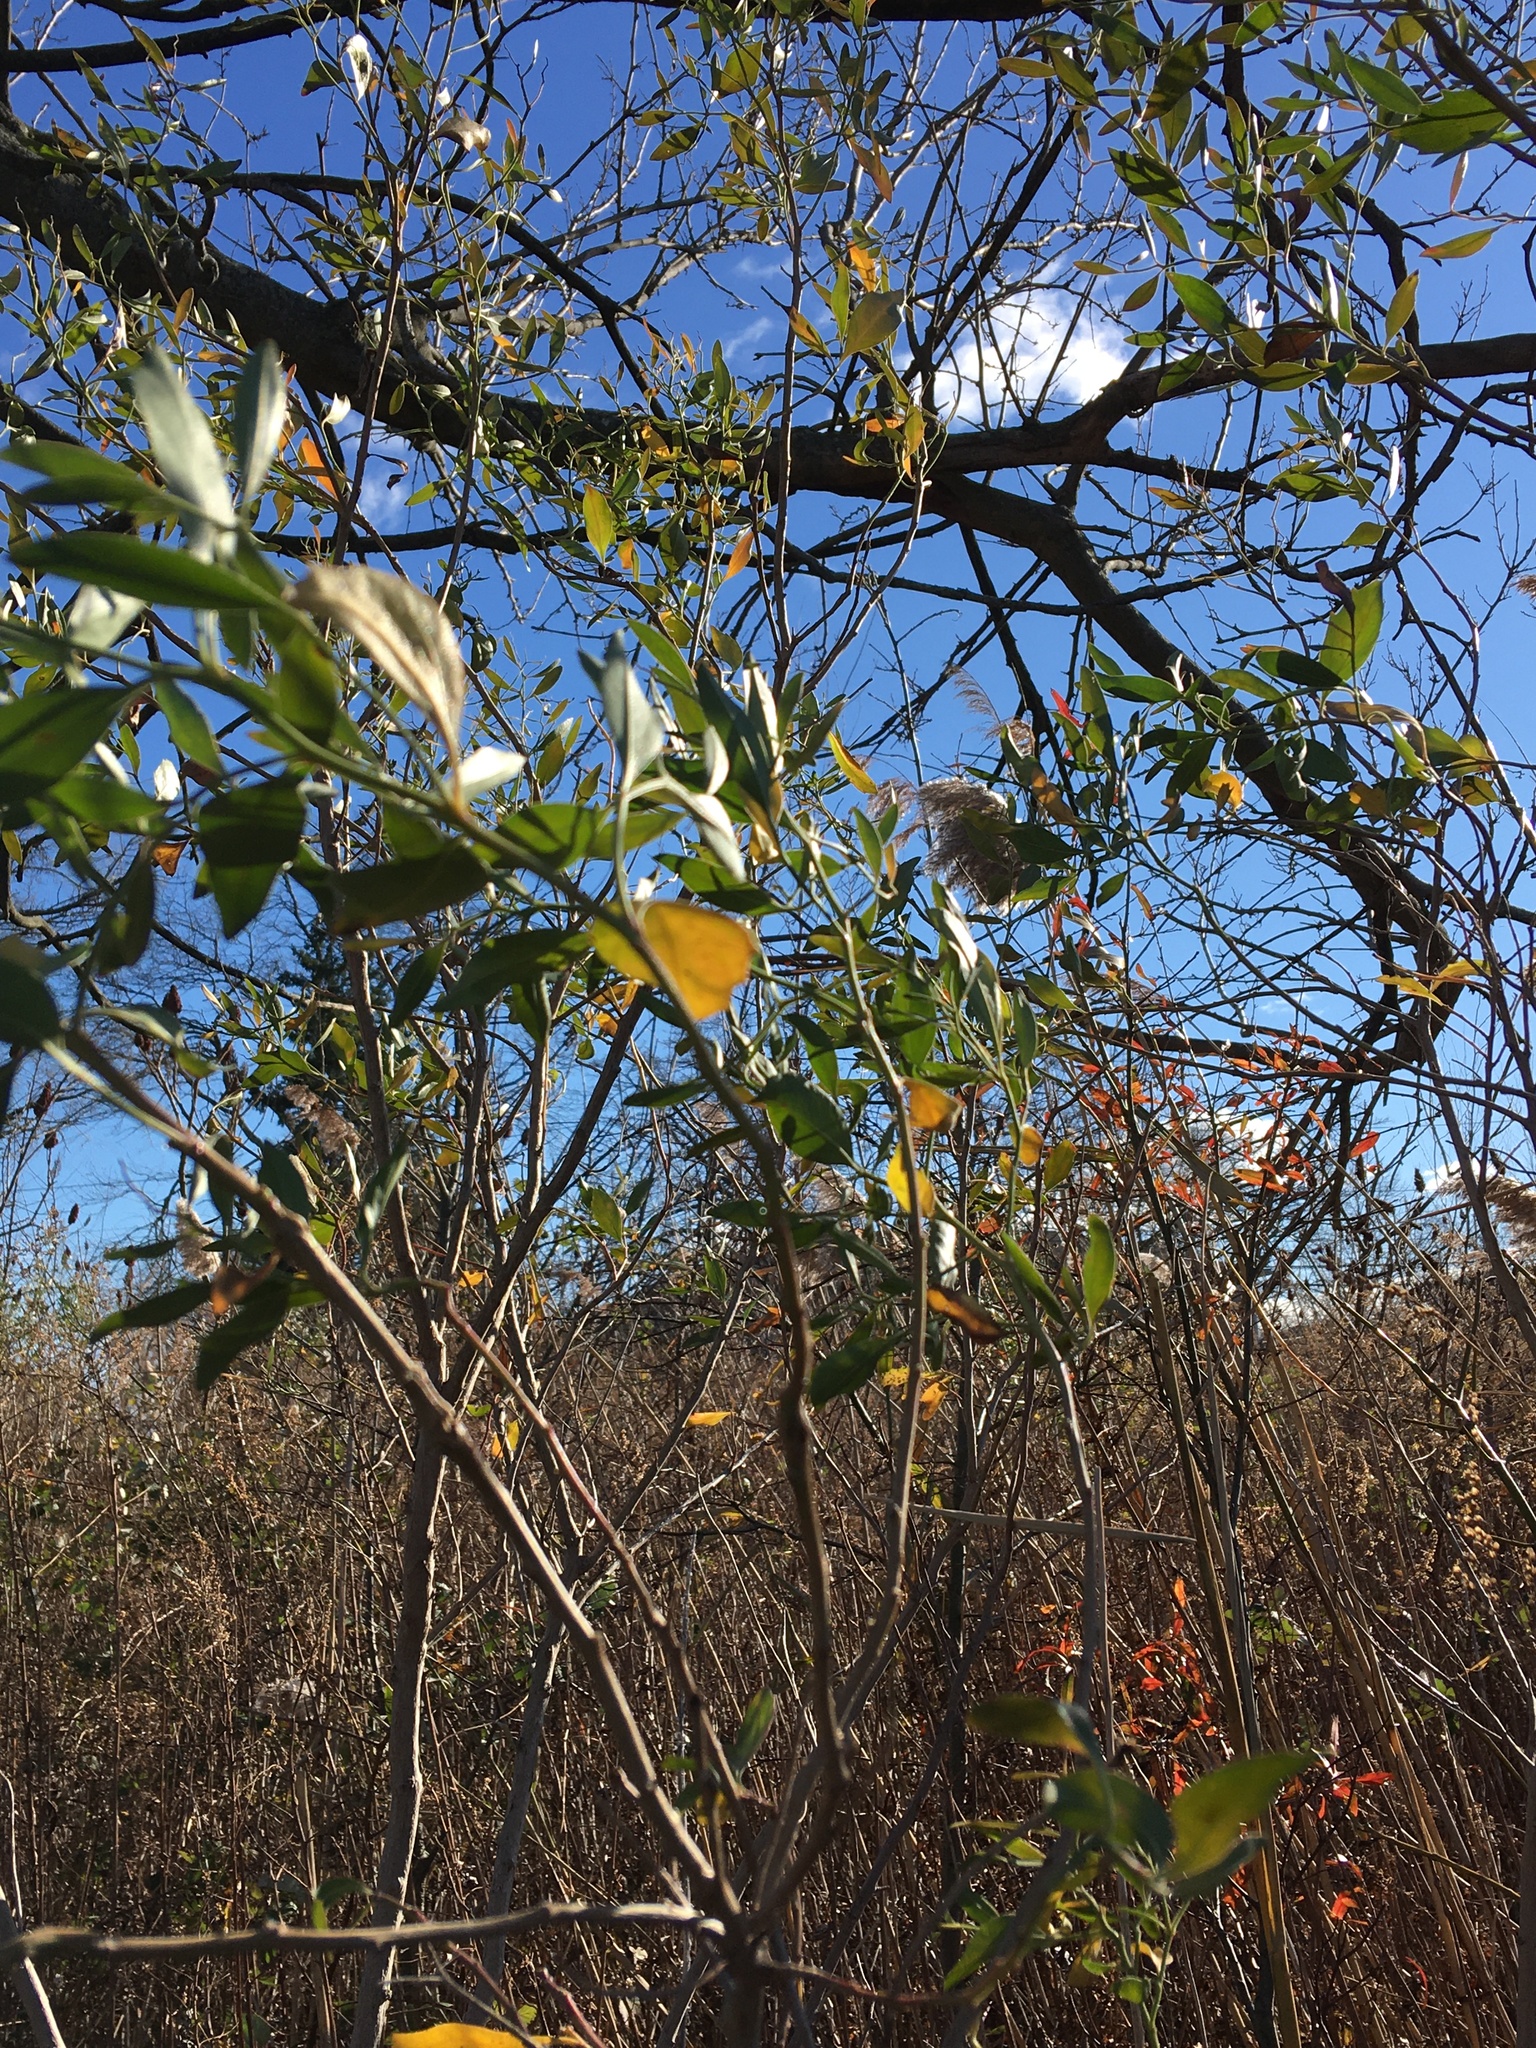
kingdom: Plantae
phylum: Tracheophyta
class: Magnoliopsida
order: Asterales
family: Asteraceae
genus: Baccharis
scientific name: Baccharis halimifolia
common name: Eastern baccharis
